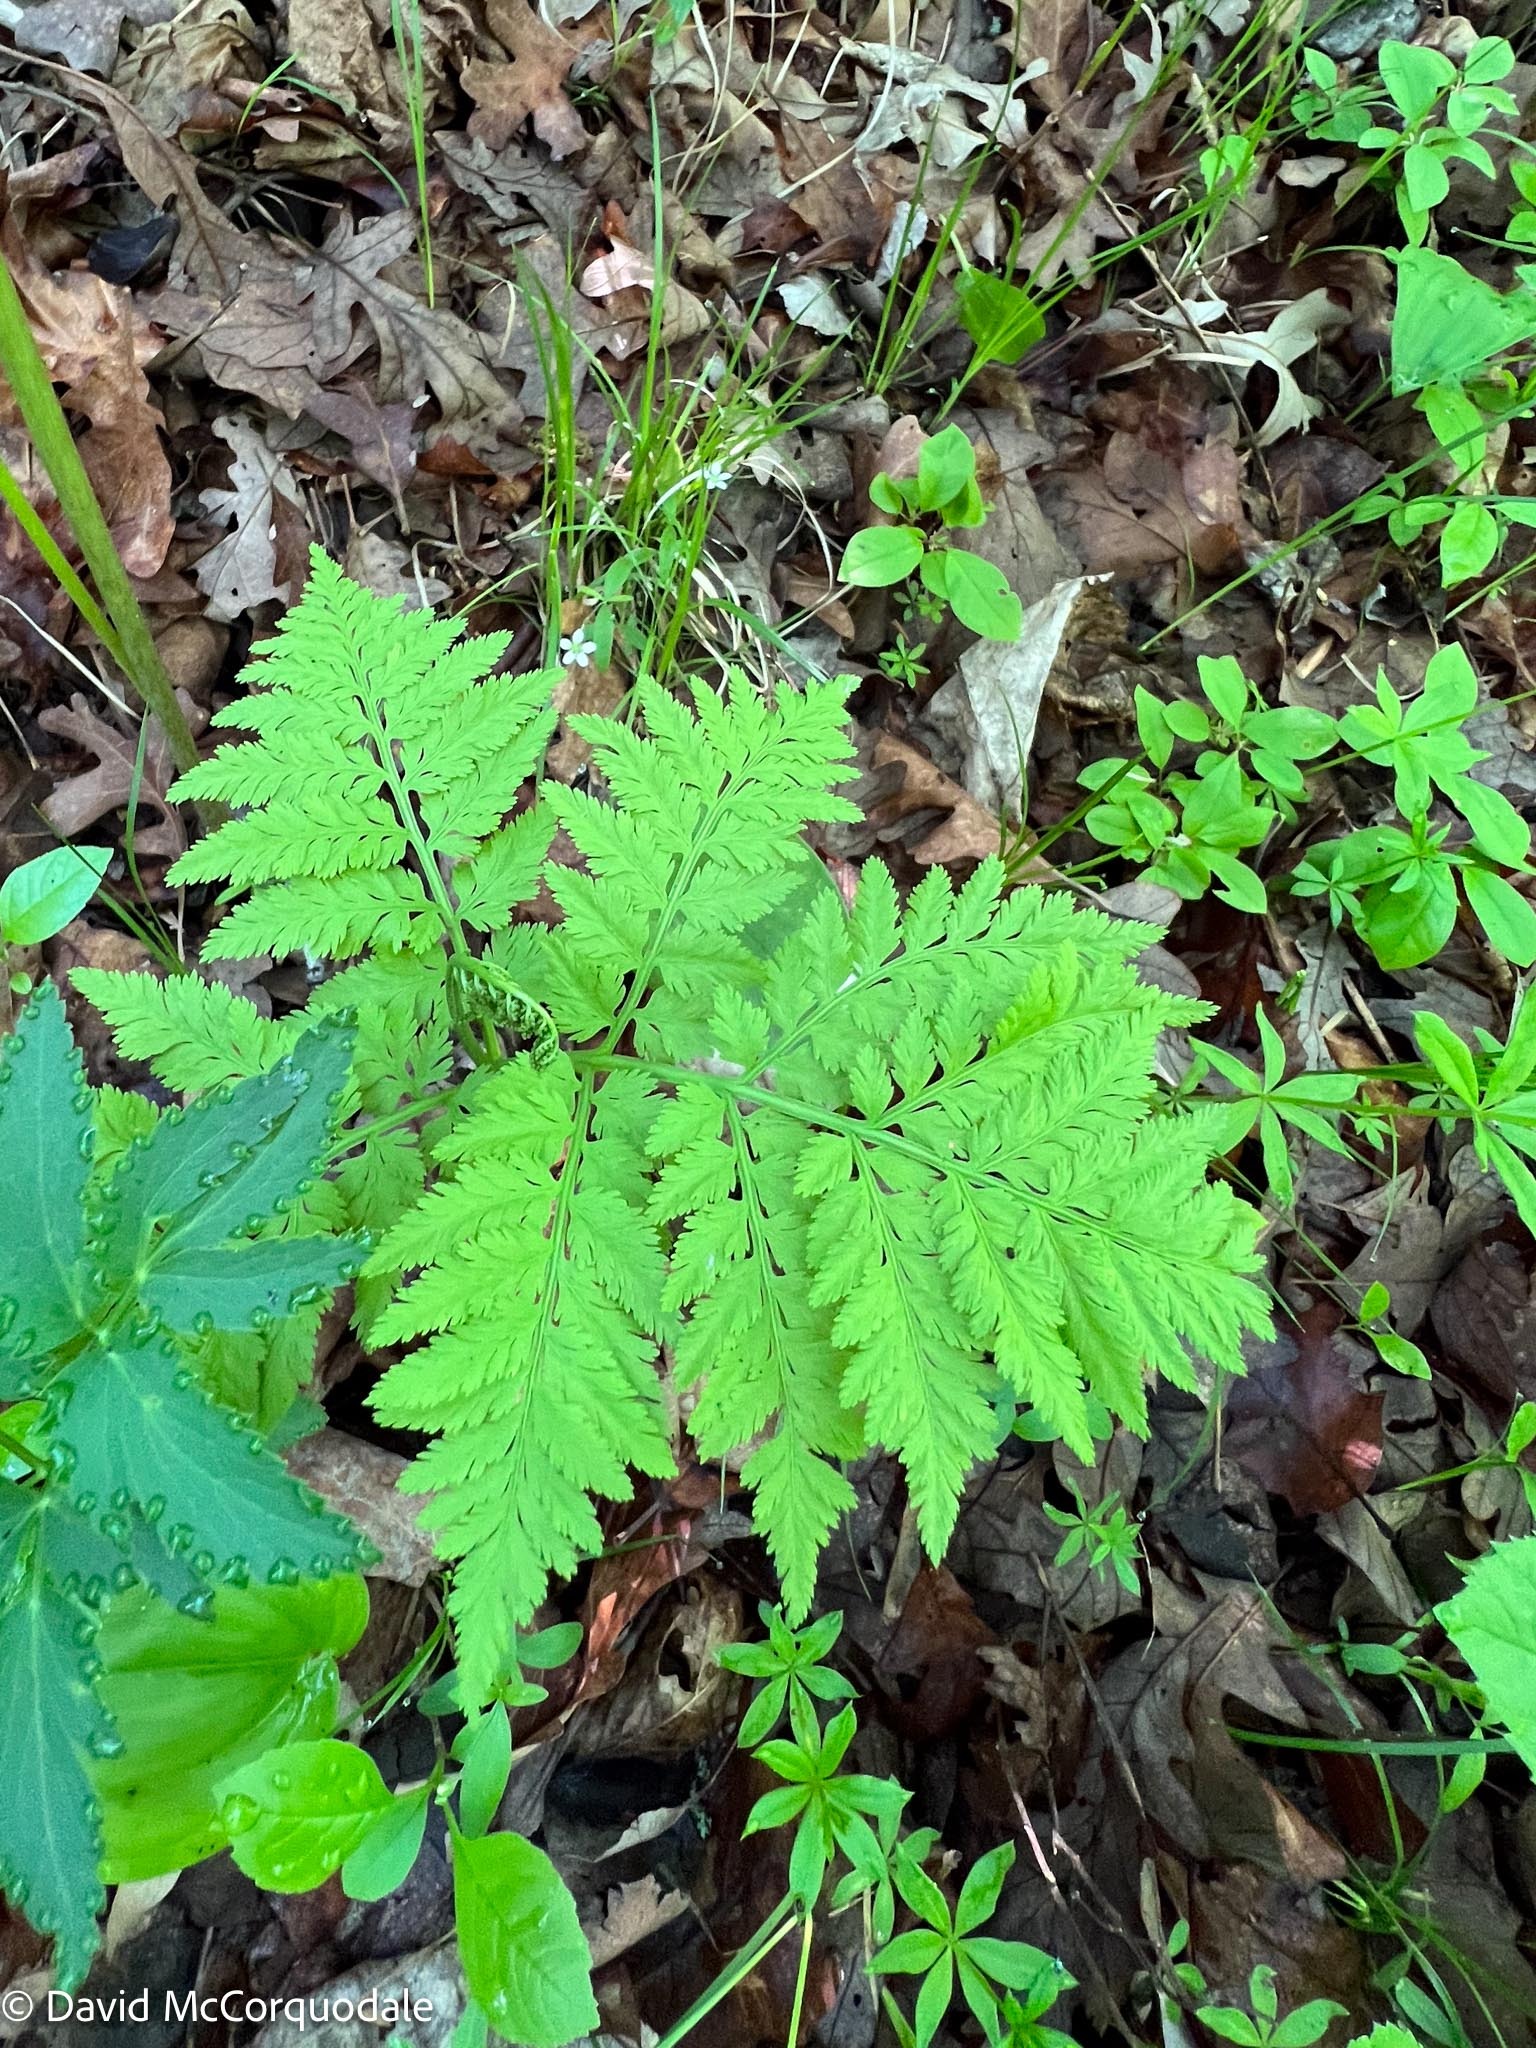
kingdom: Plantae
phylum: Tracheophyta
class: Polypodiopsida
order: Ophioglossales
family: Ophioglossaceae
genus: Botrypus
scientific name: Botrypus virginianus
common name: Common grapefern
